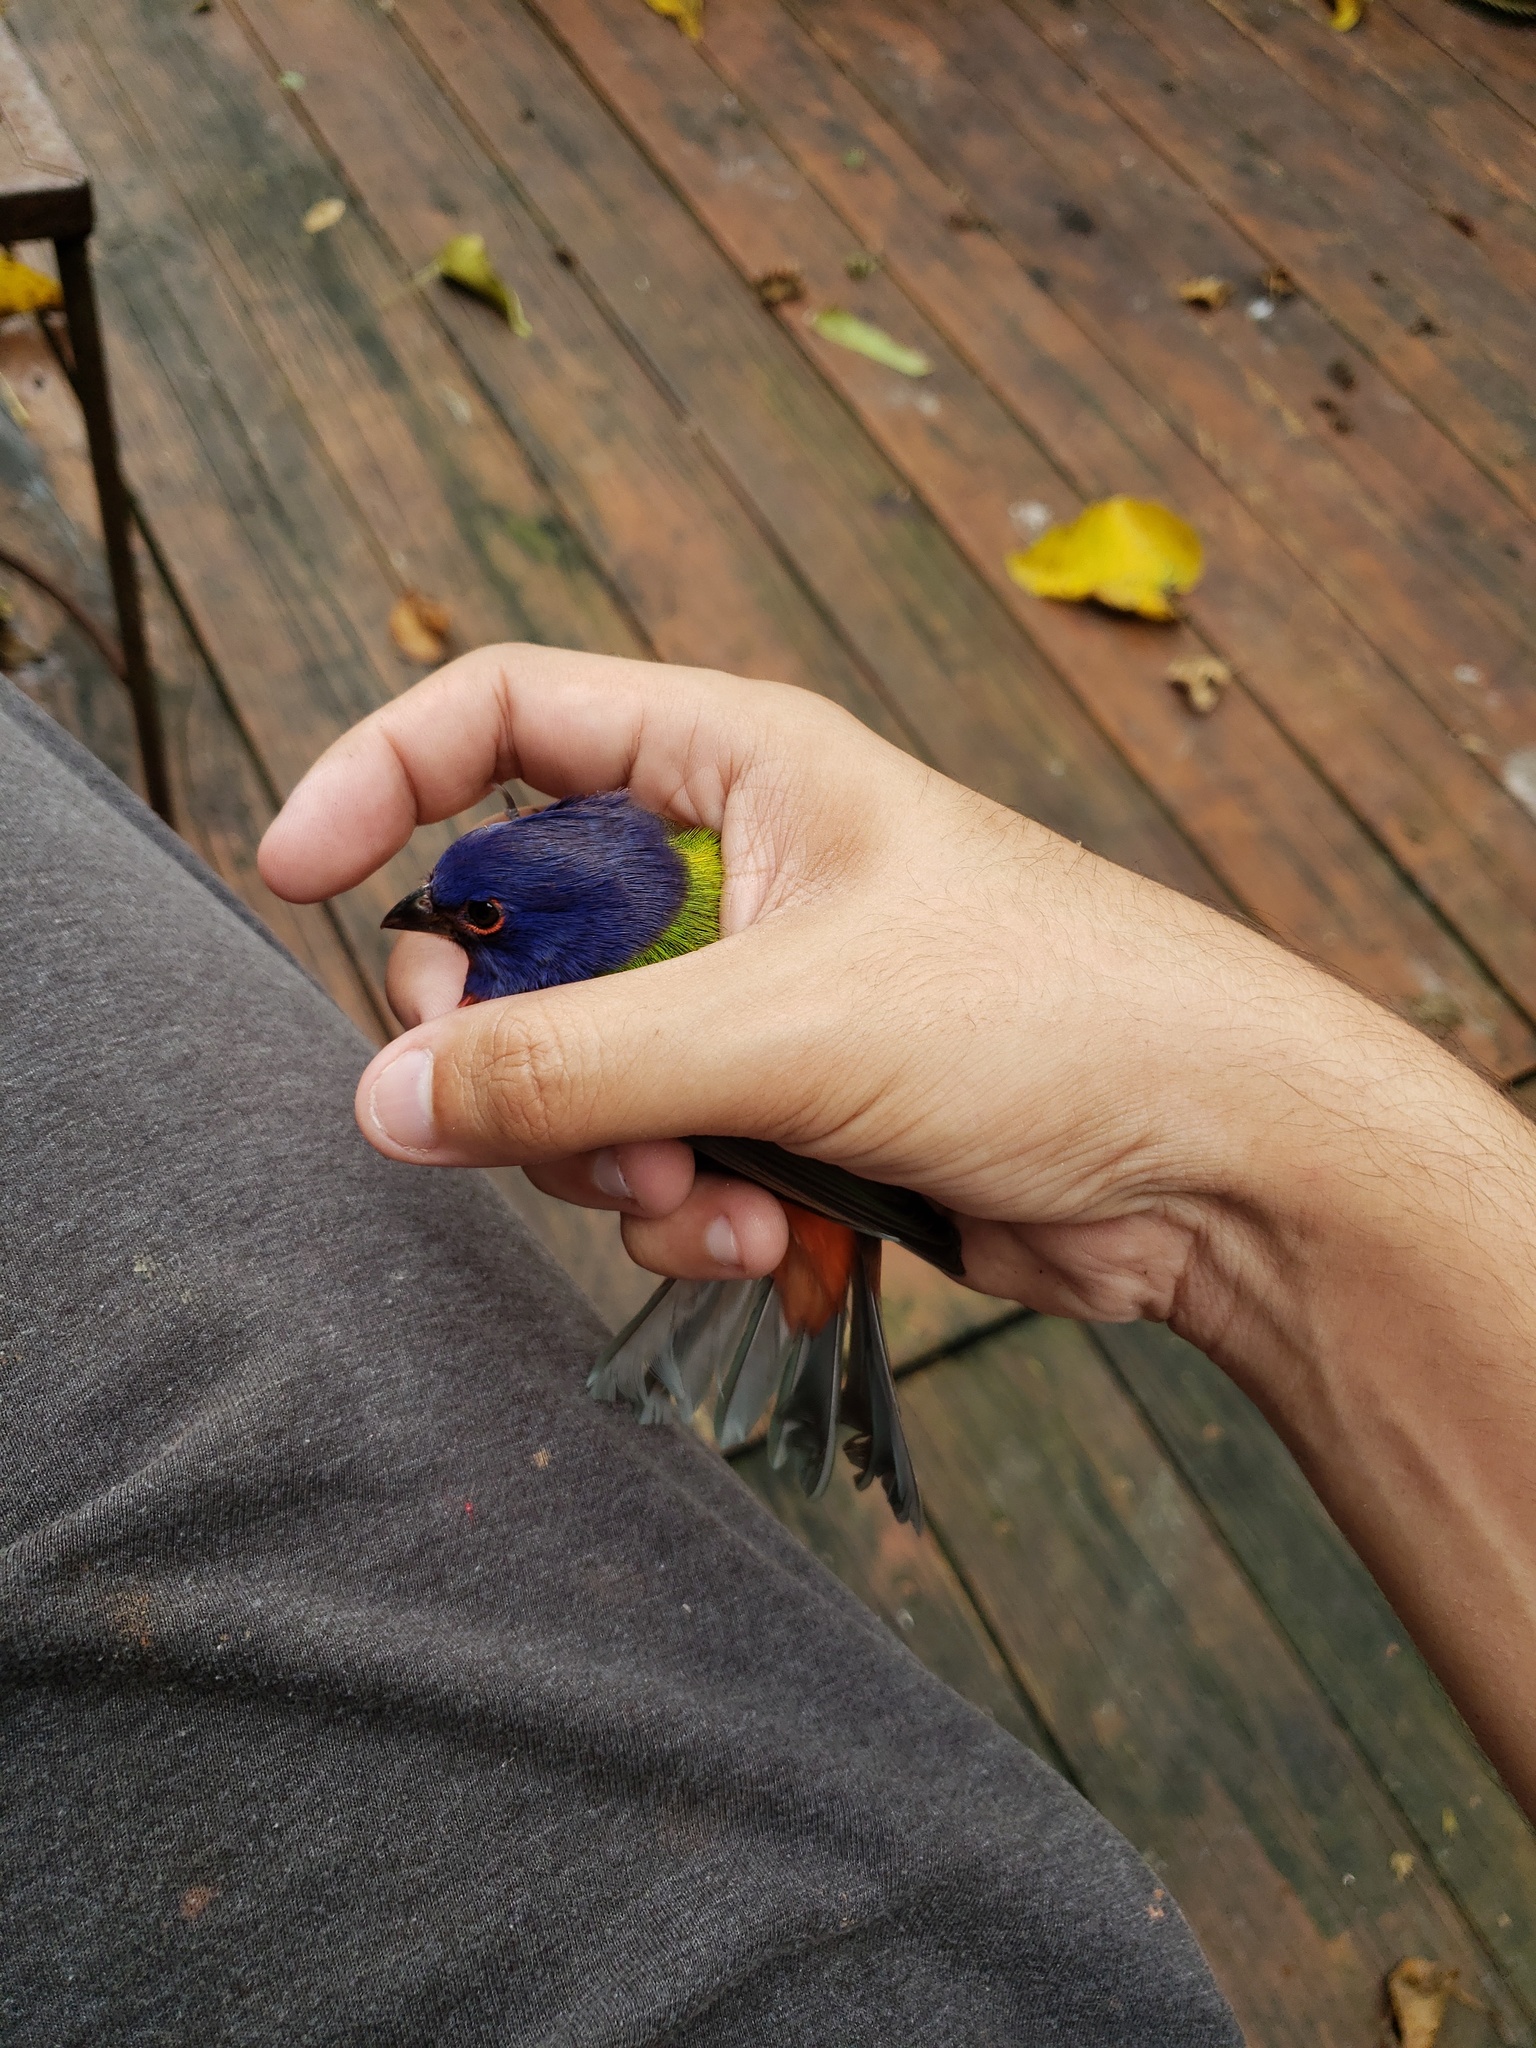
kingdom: Animalia
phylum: Chordata
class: Aves
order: Passeriformes
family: Cardinalidae
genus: Passerina
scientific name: Passerina ciris
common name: Painted bunting
